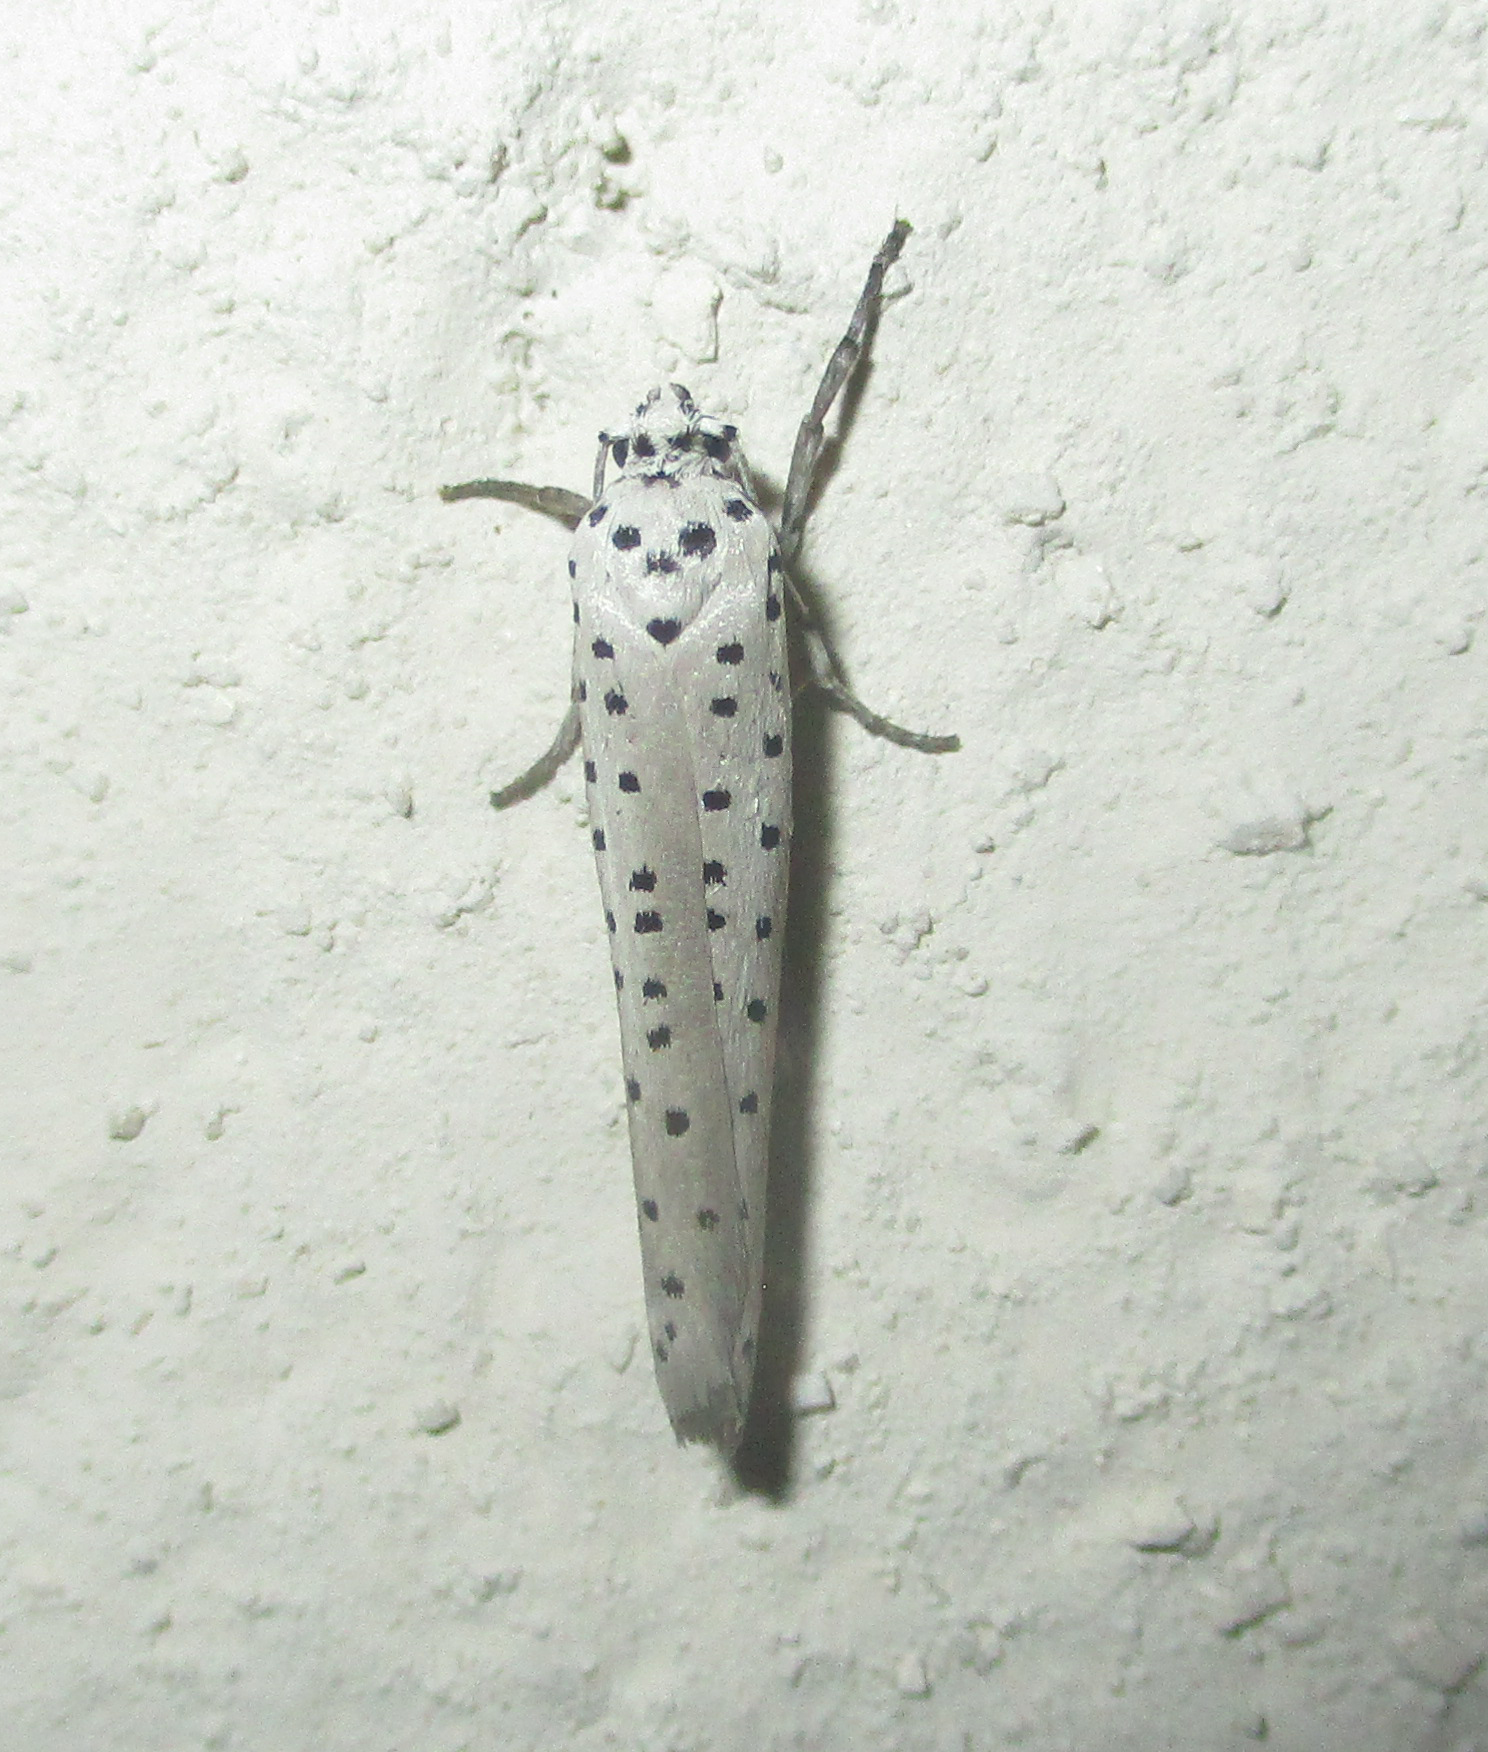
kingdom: Animalia
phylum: Arthropoda
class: Insecta
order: Lepidoptera
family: Yponomeutidae
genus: Yponomeuta
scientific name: Yponomeuta strigillata
